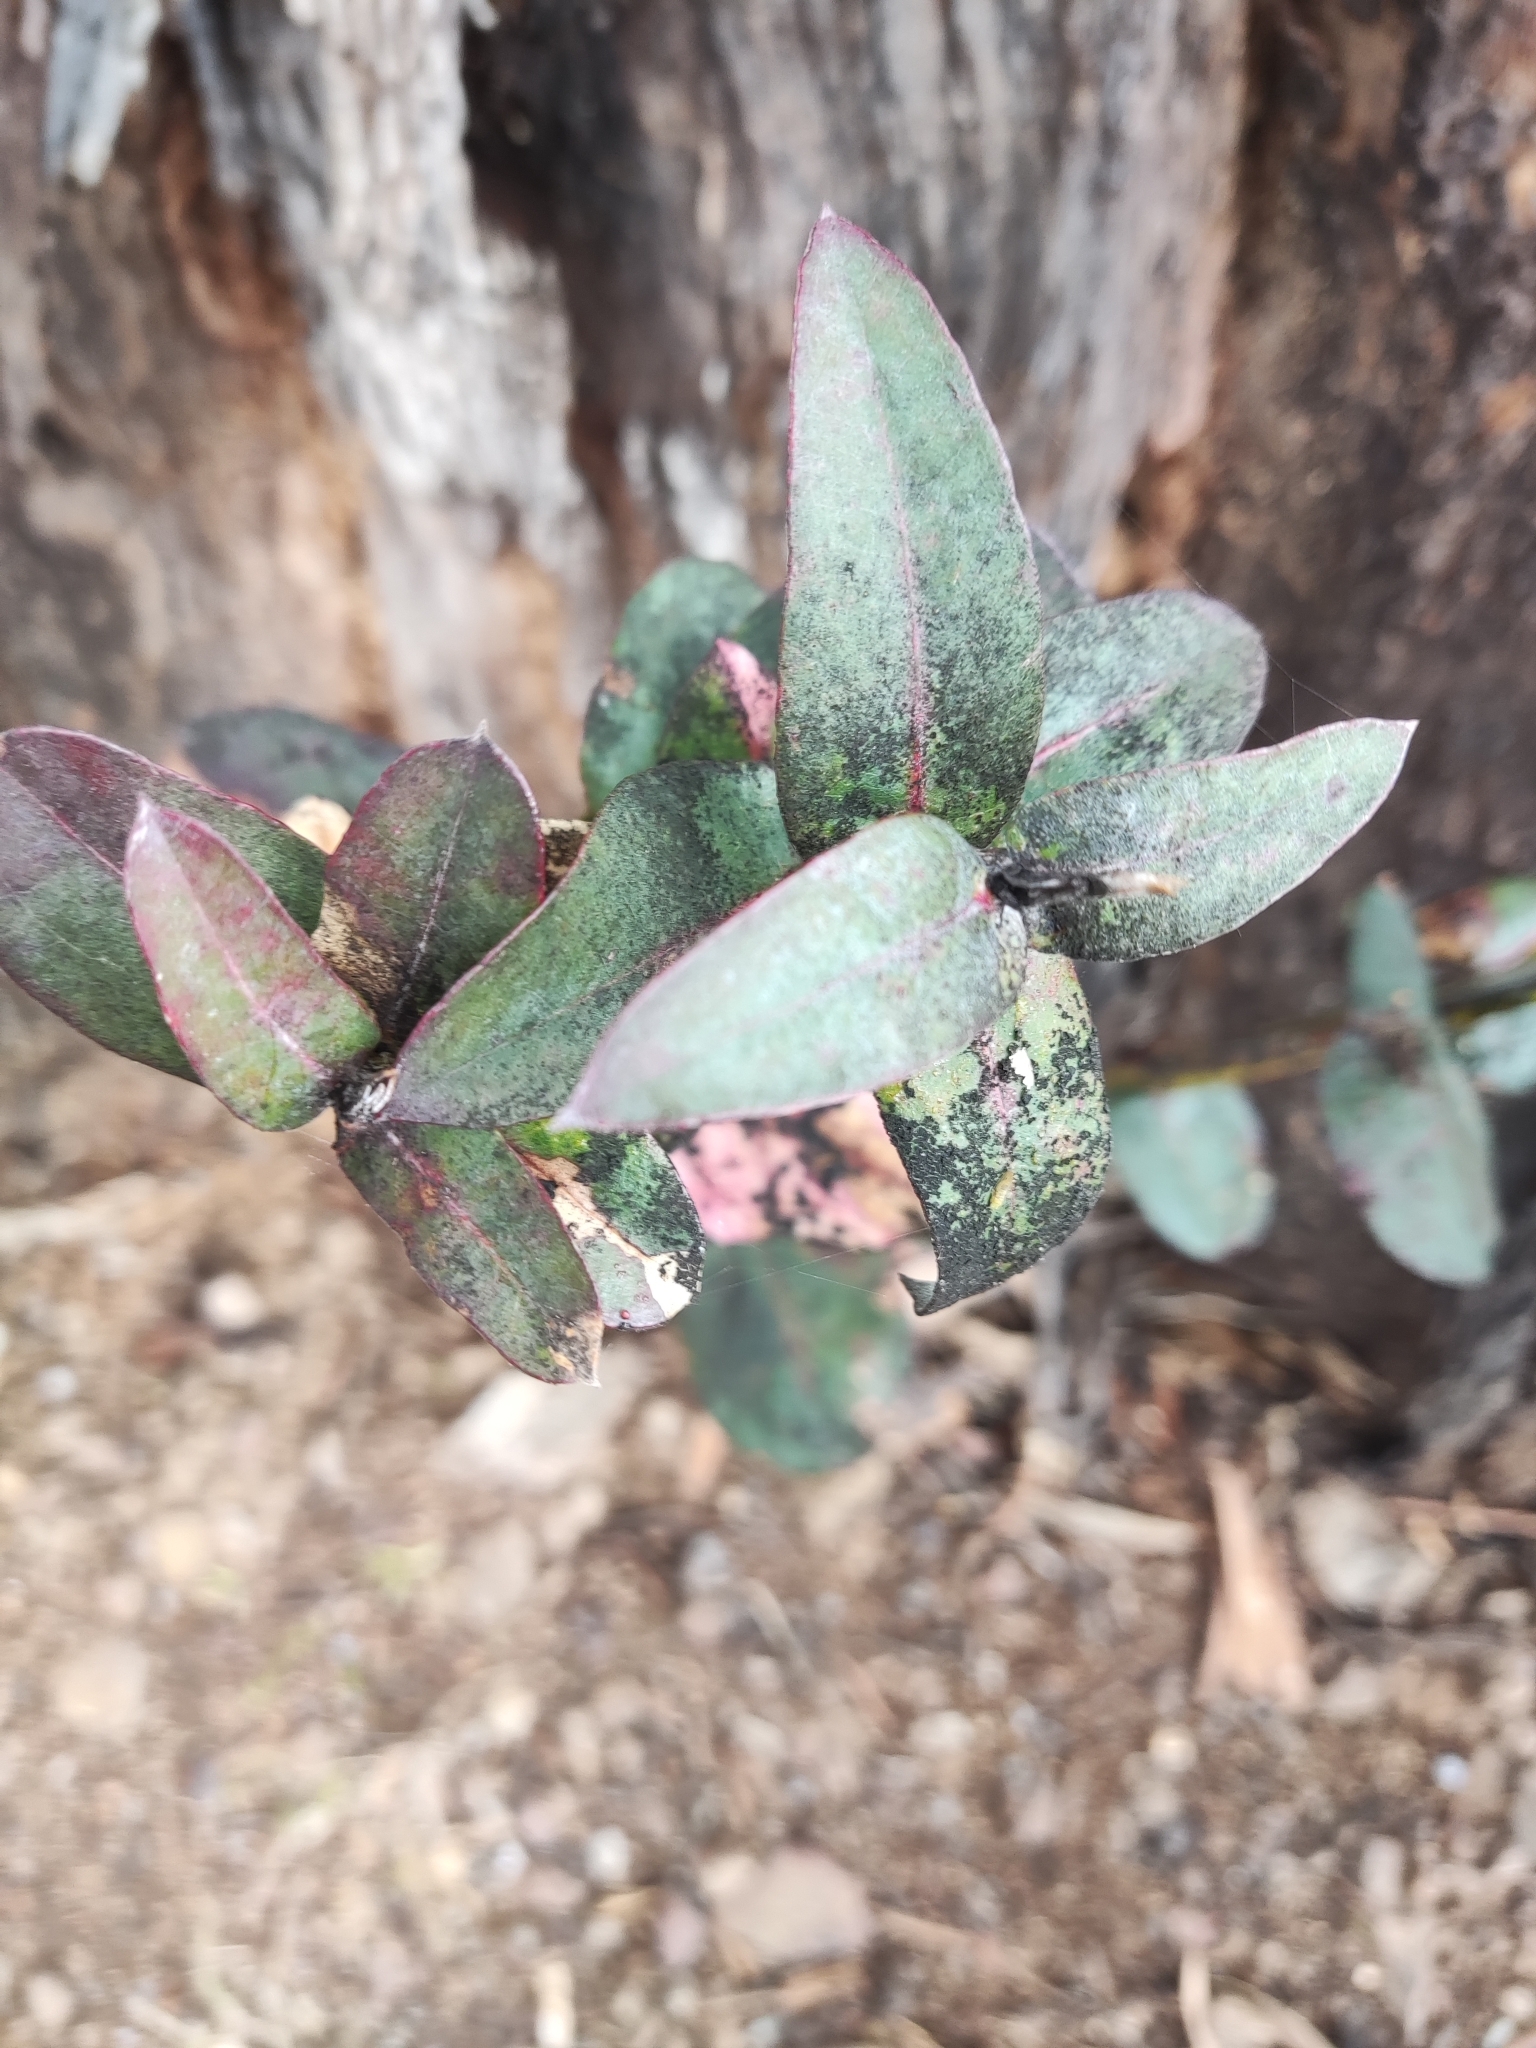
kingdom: Plantae
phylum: Tracheophyta
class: Magnoliopsida
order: Myrtales
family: Myrtaceae
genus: Eucalyptus
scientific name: Eucalyptus globulus
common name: Southern blue-gum
